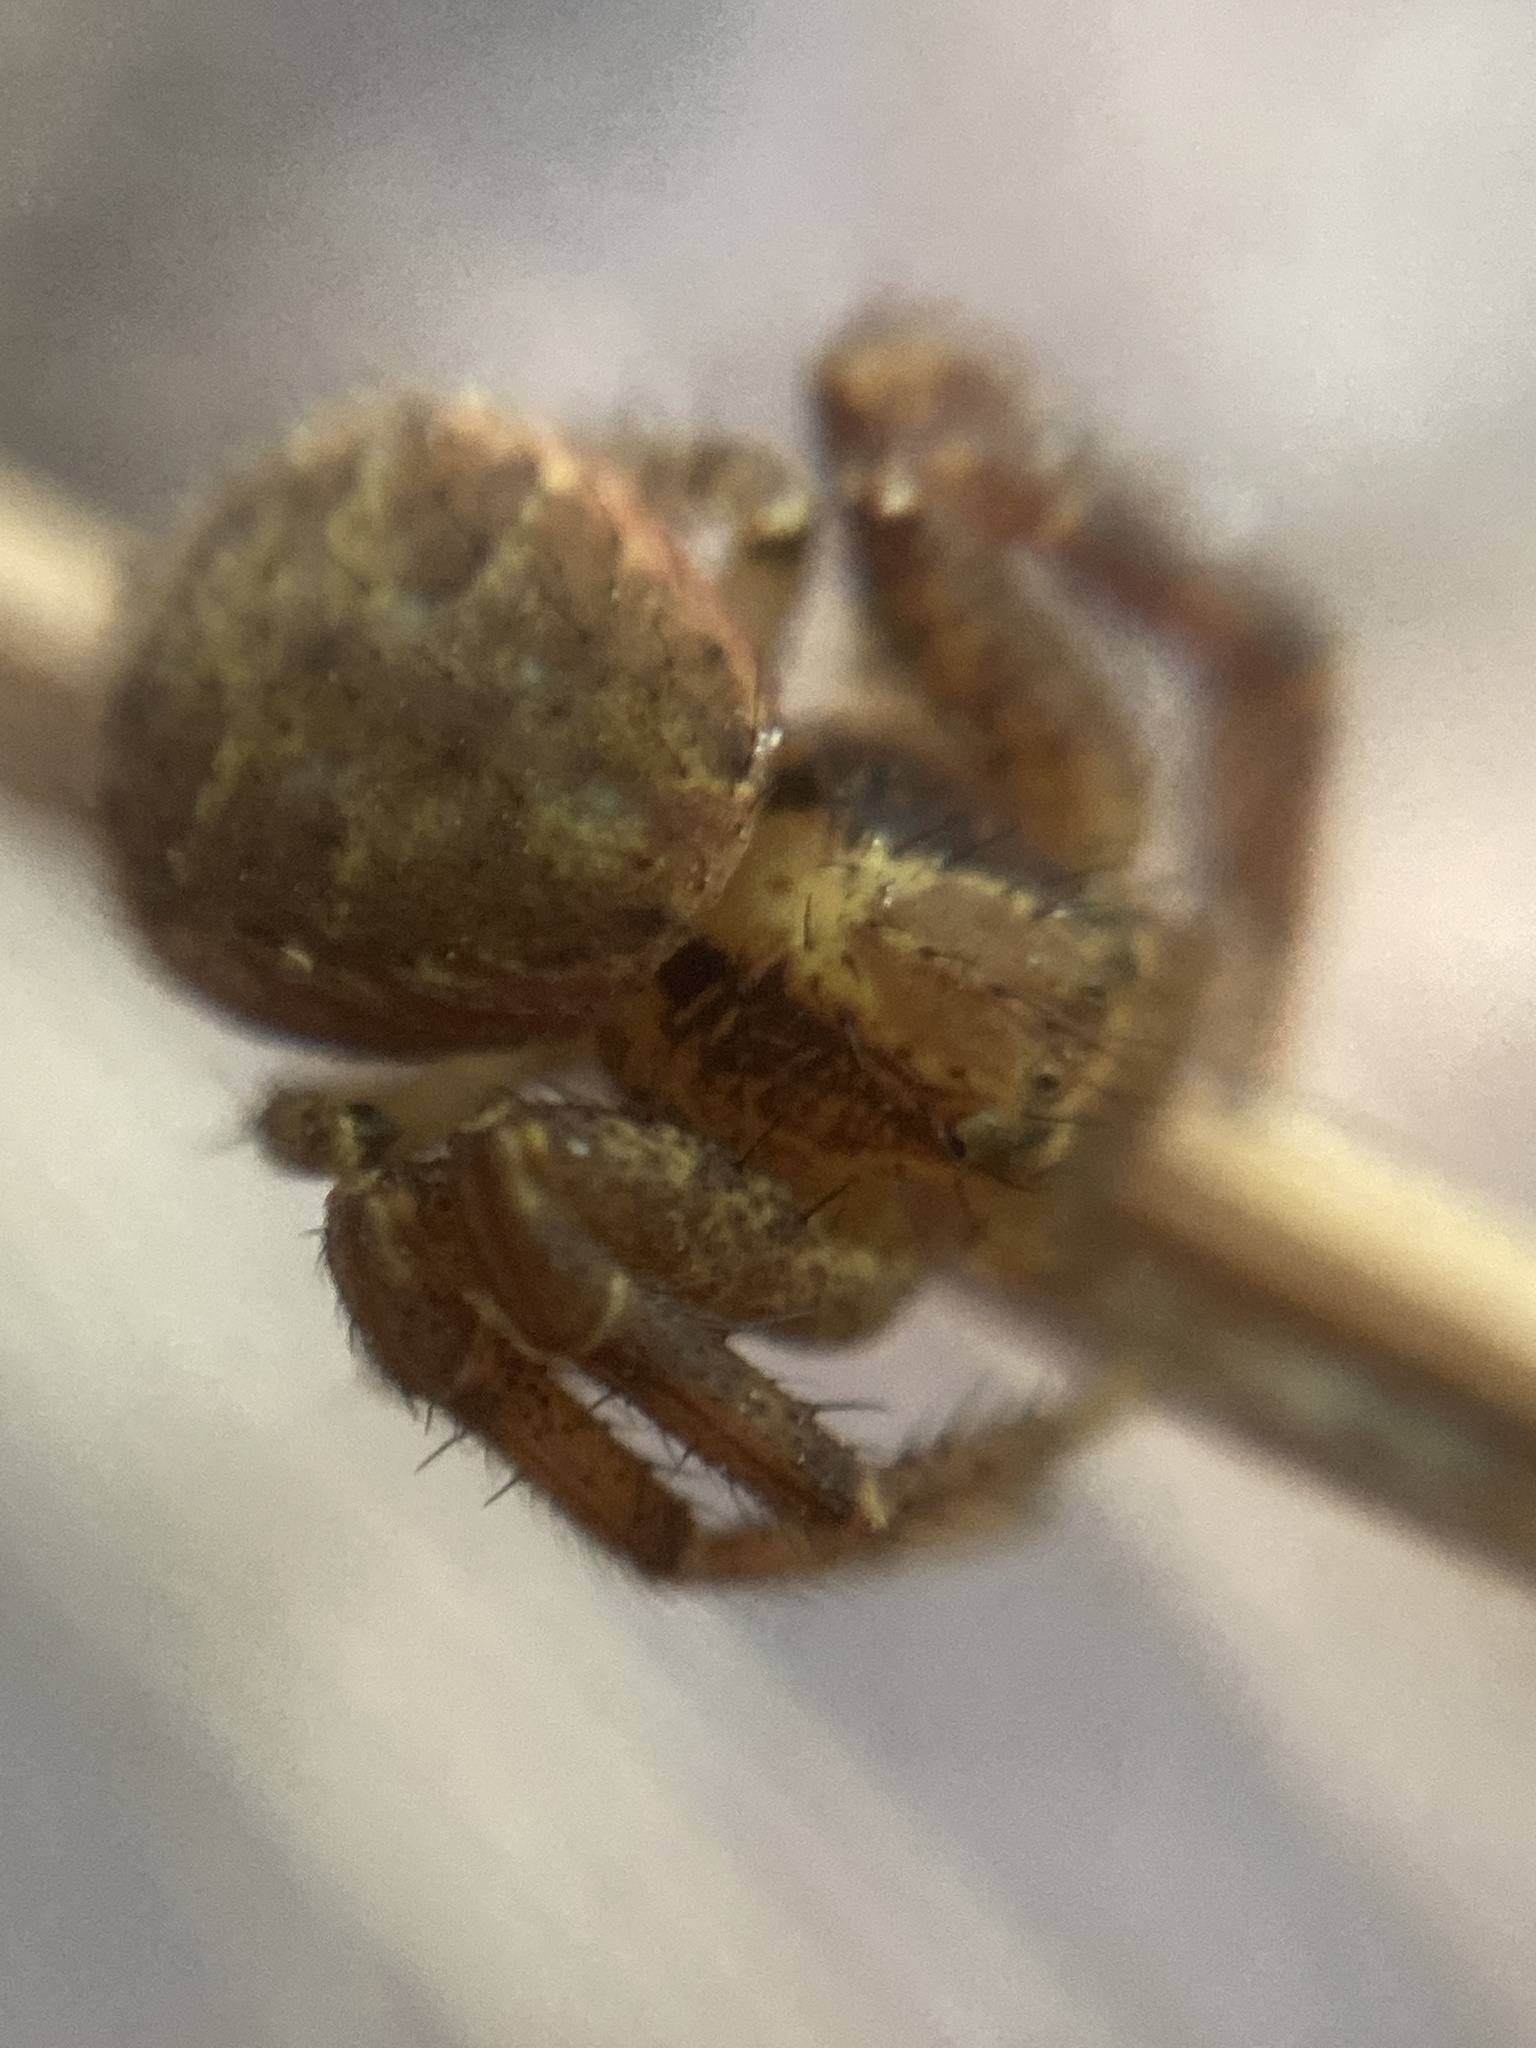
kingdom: Animalia
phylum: Arthropoda
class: Arachnida
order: Araneae
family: Thomisidae
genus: Xysticus
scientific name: Xysticus
